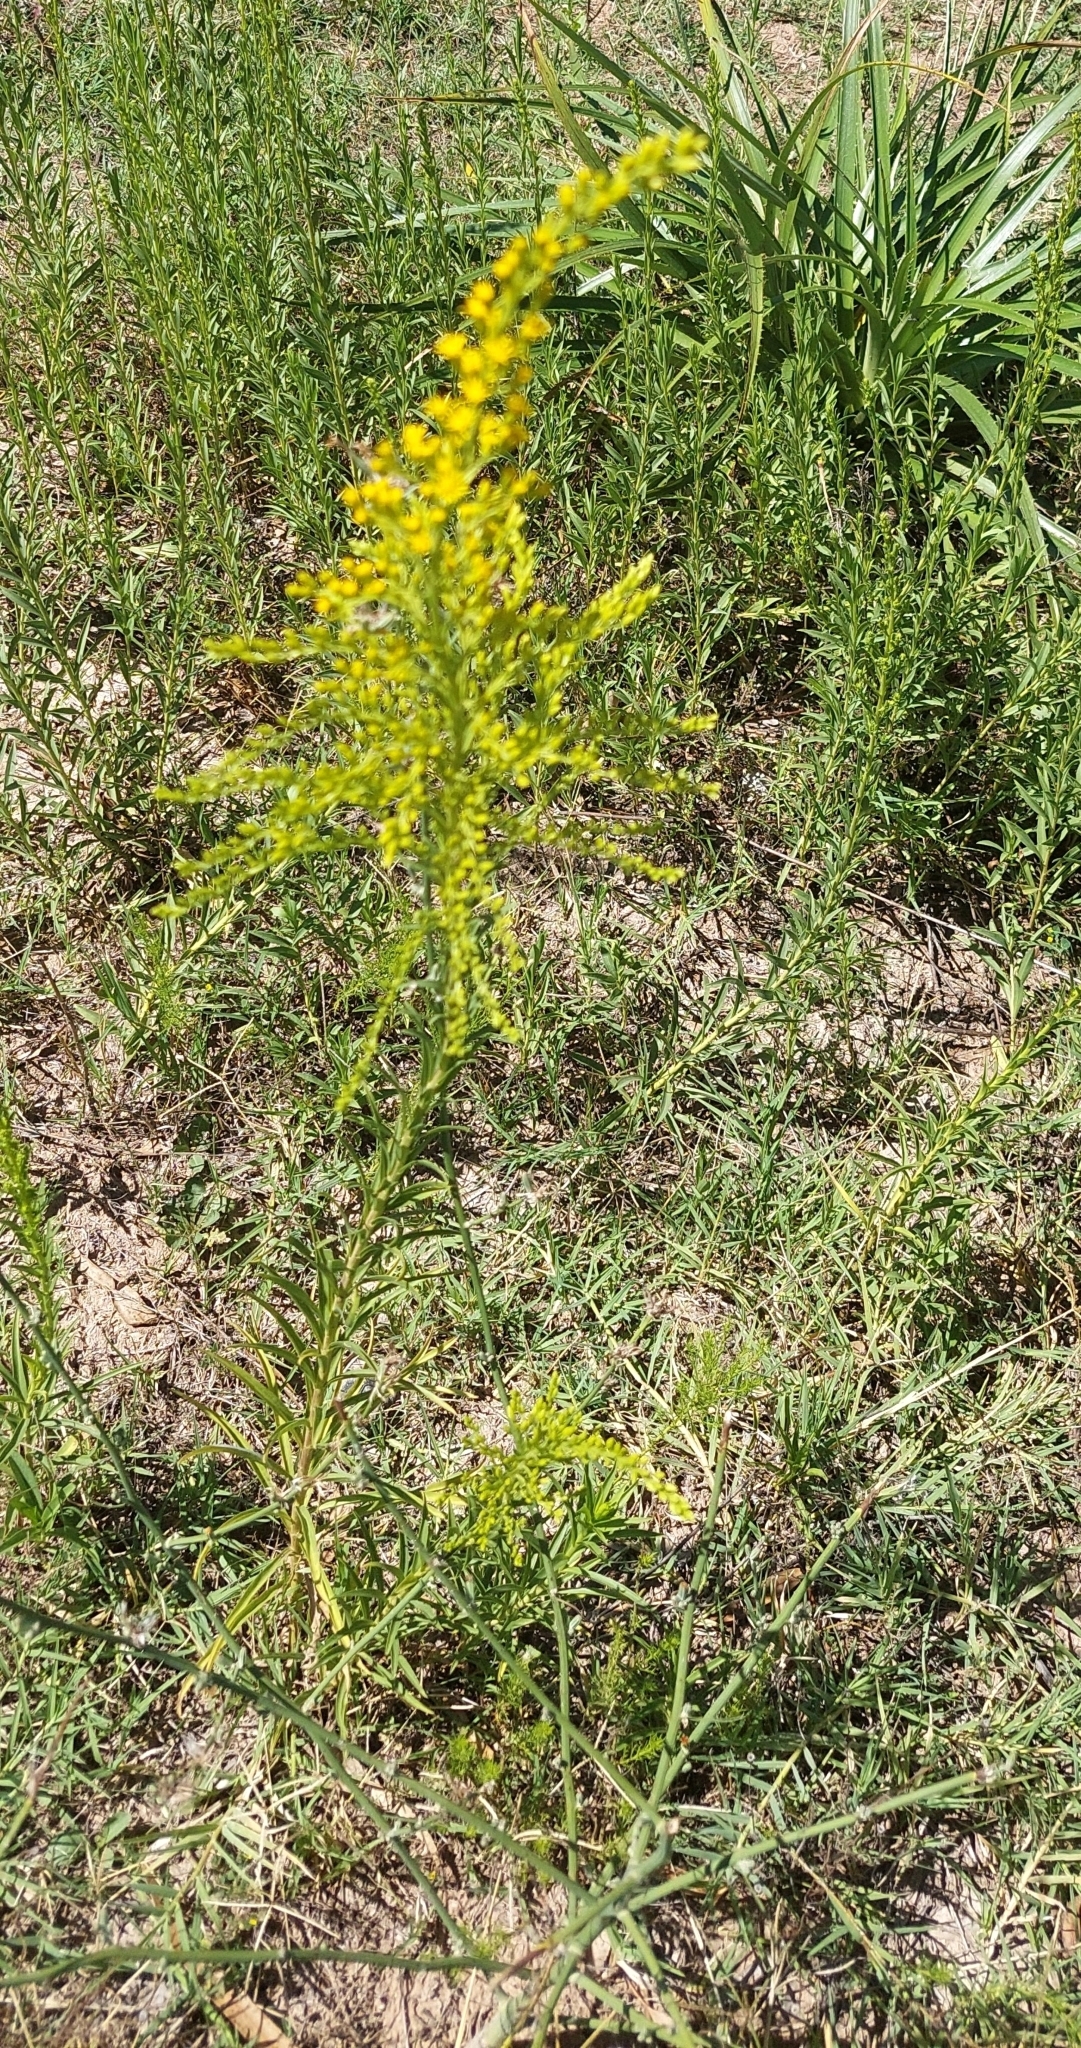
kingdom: Plantae
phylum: Tracheophyta
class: Magnoliopsida
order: Asterales
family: Asteraceae
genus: Solidago
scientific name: Solidago chilensis
